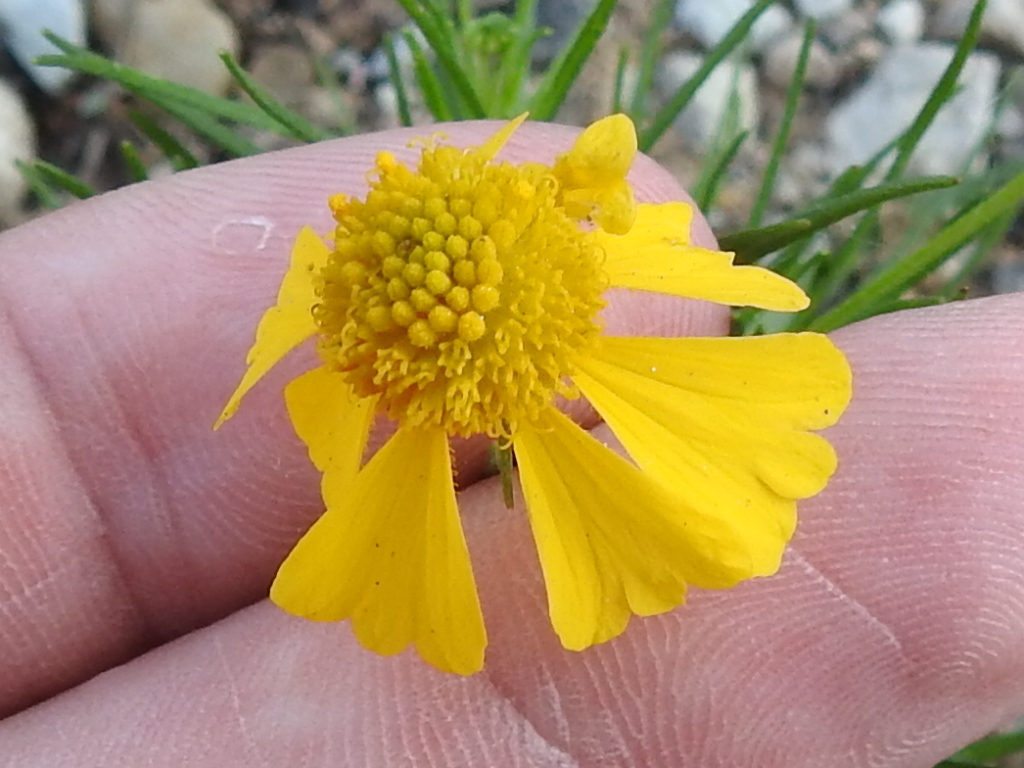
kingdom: Plantae
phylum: Tracheophyta
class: Magnoliopsida
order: Asterales
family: Asteraceae
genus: Helenium
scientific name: Helenium amarum
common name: Bitter sneezeweed
